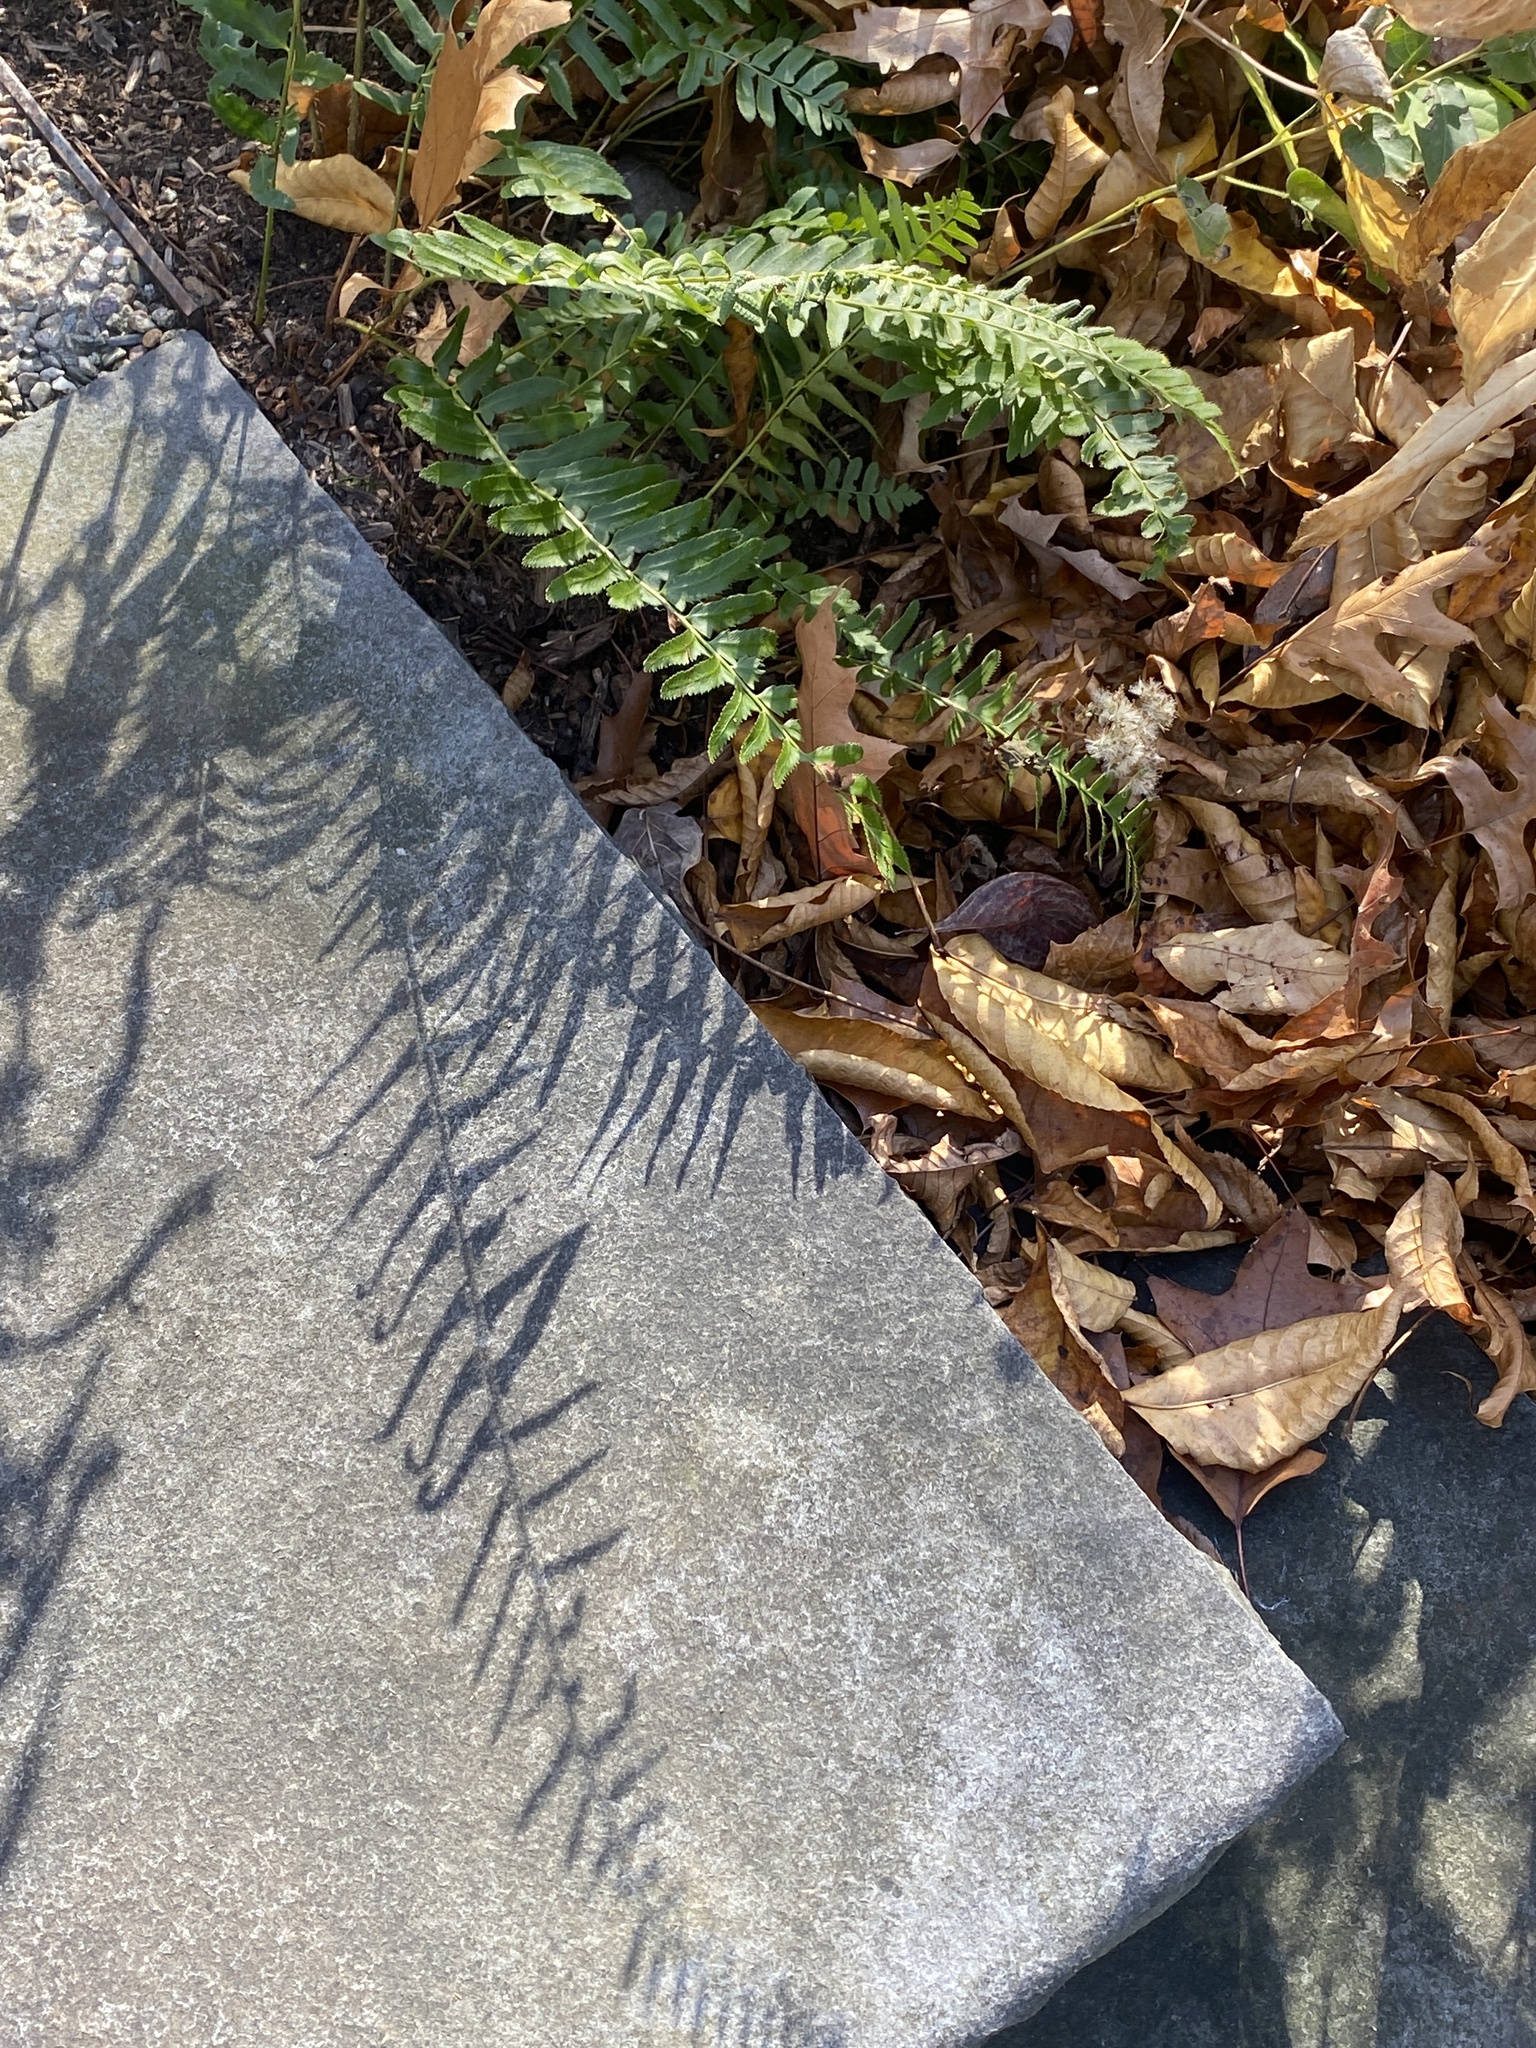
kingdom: Plantae
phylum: Tracheophyta
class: Polypodiopsida
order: Polypodiales
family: Dryopteridaceae
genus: Polystichum
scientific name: Polystichum acrostichoides
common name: Christmas fern
